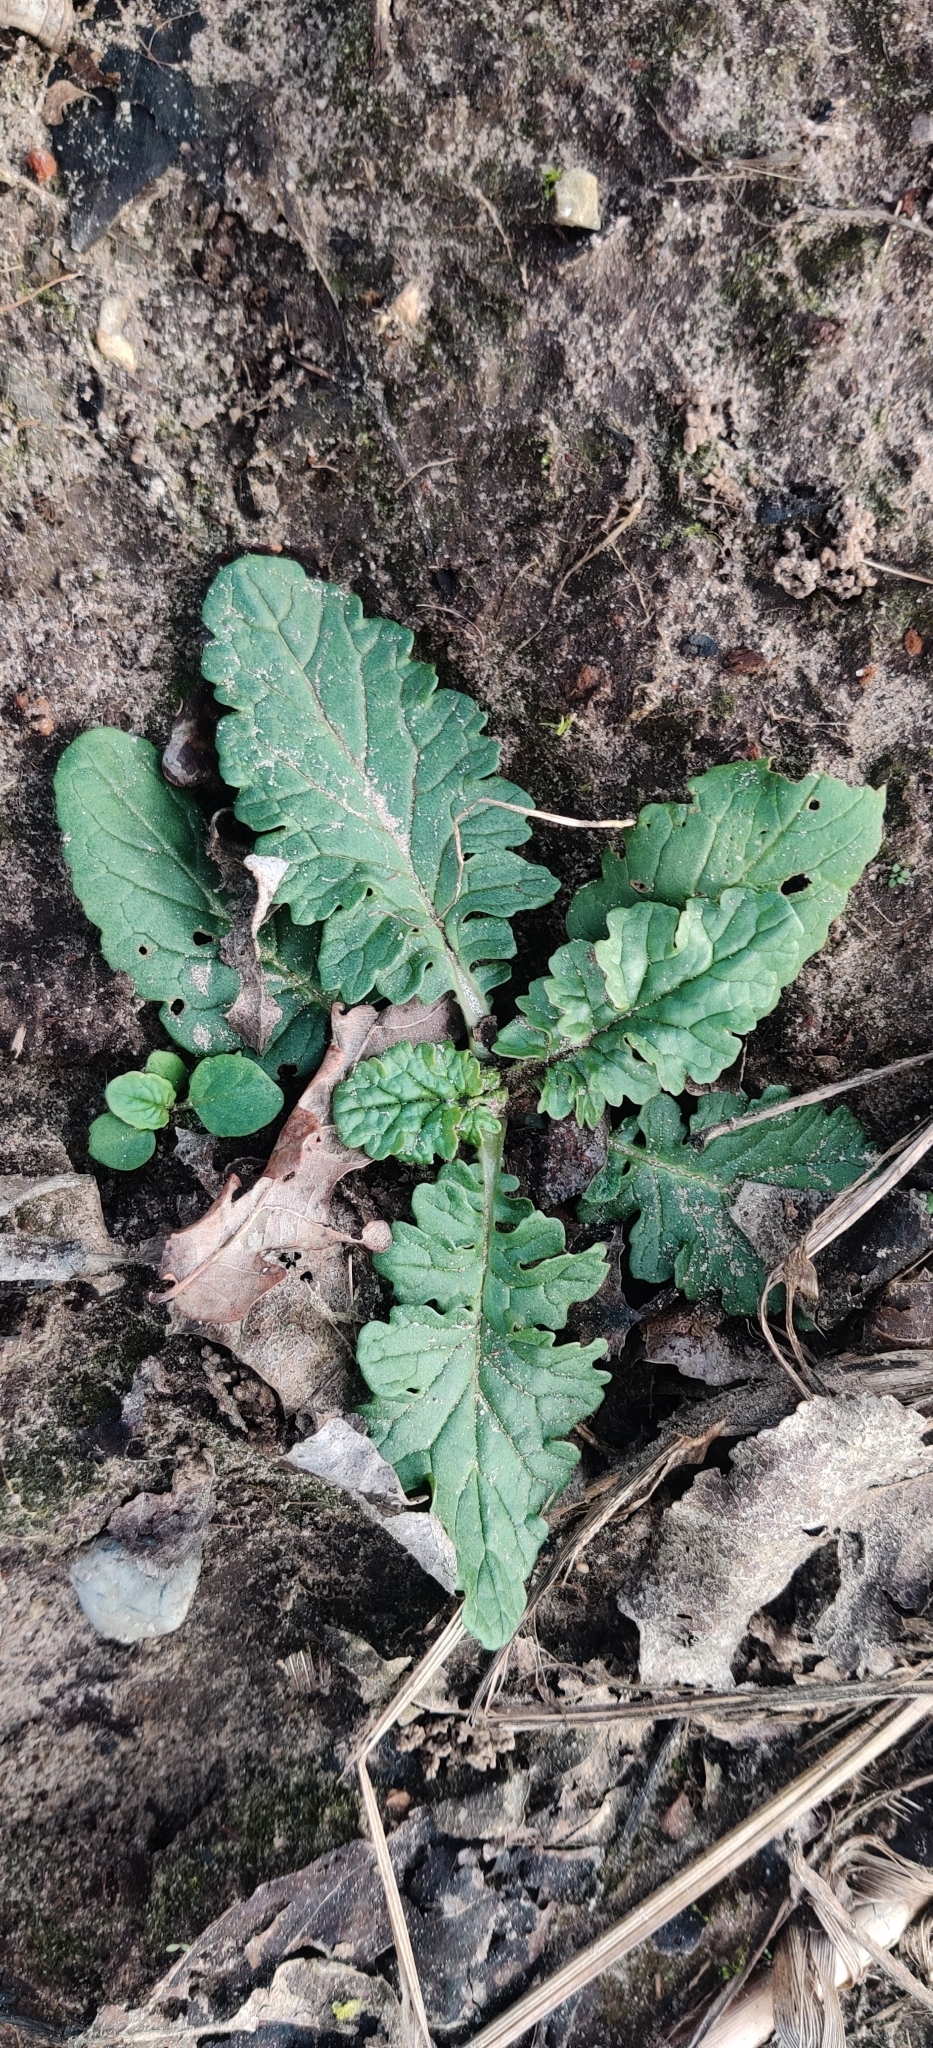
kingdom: Plantae
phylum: Tracheophyta
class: Magnoliopsida
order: Asterales
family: Asteraceae
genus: Jacobaea
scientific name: Jacobaea vulgaris
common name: Stinking willie
